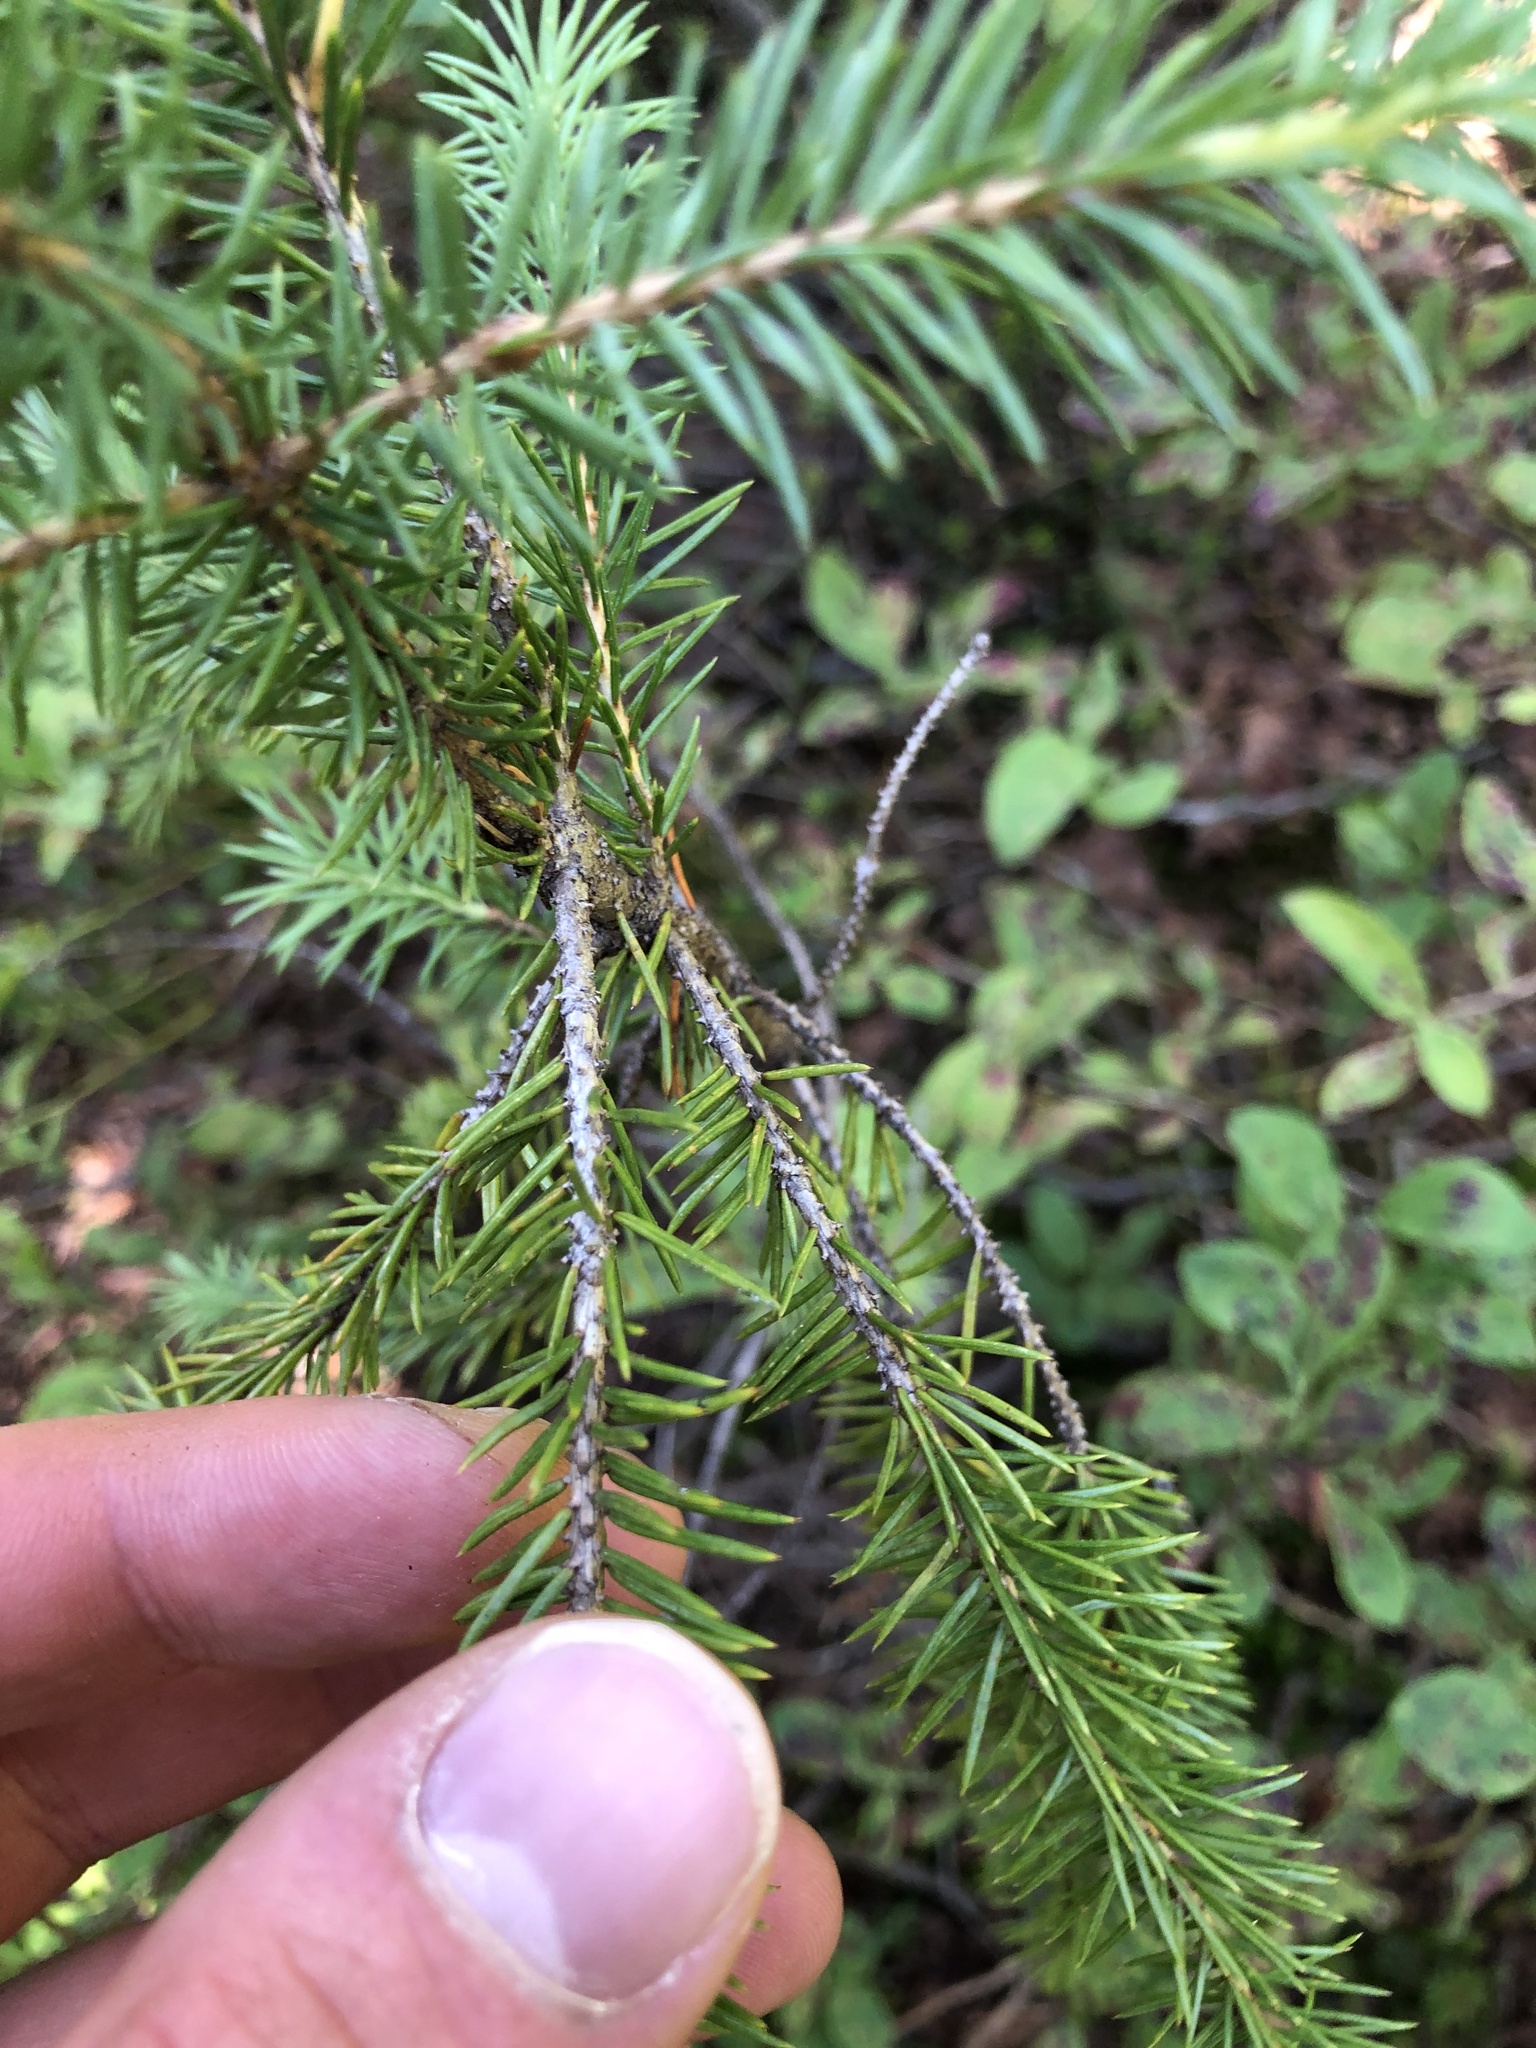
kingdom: Plantae
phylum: Tracheophyta
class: Pinopsida
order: Pinales
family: Pinaceae
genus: Picea
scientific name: Picea engelmannii
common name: Engelmann spruce
